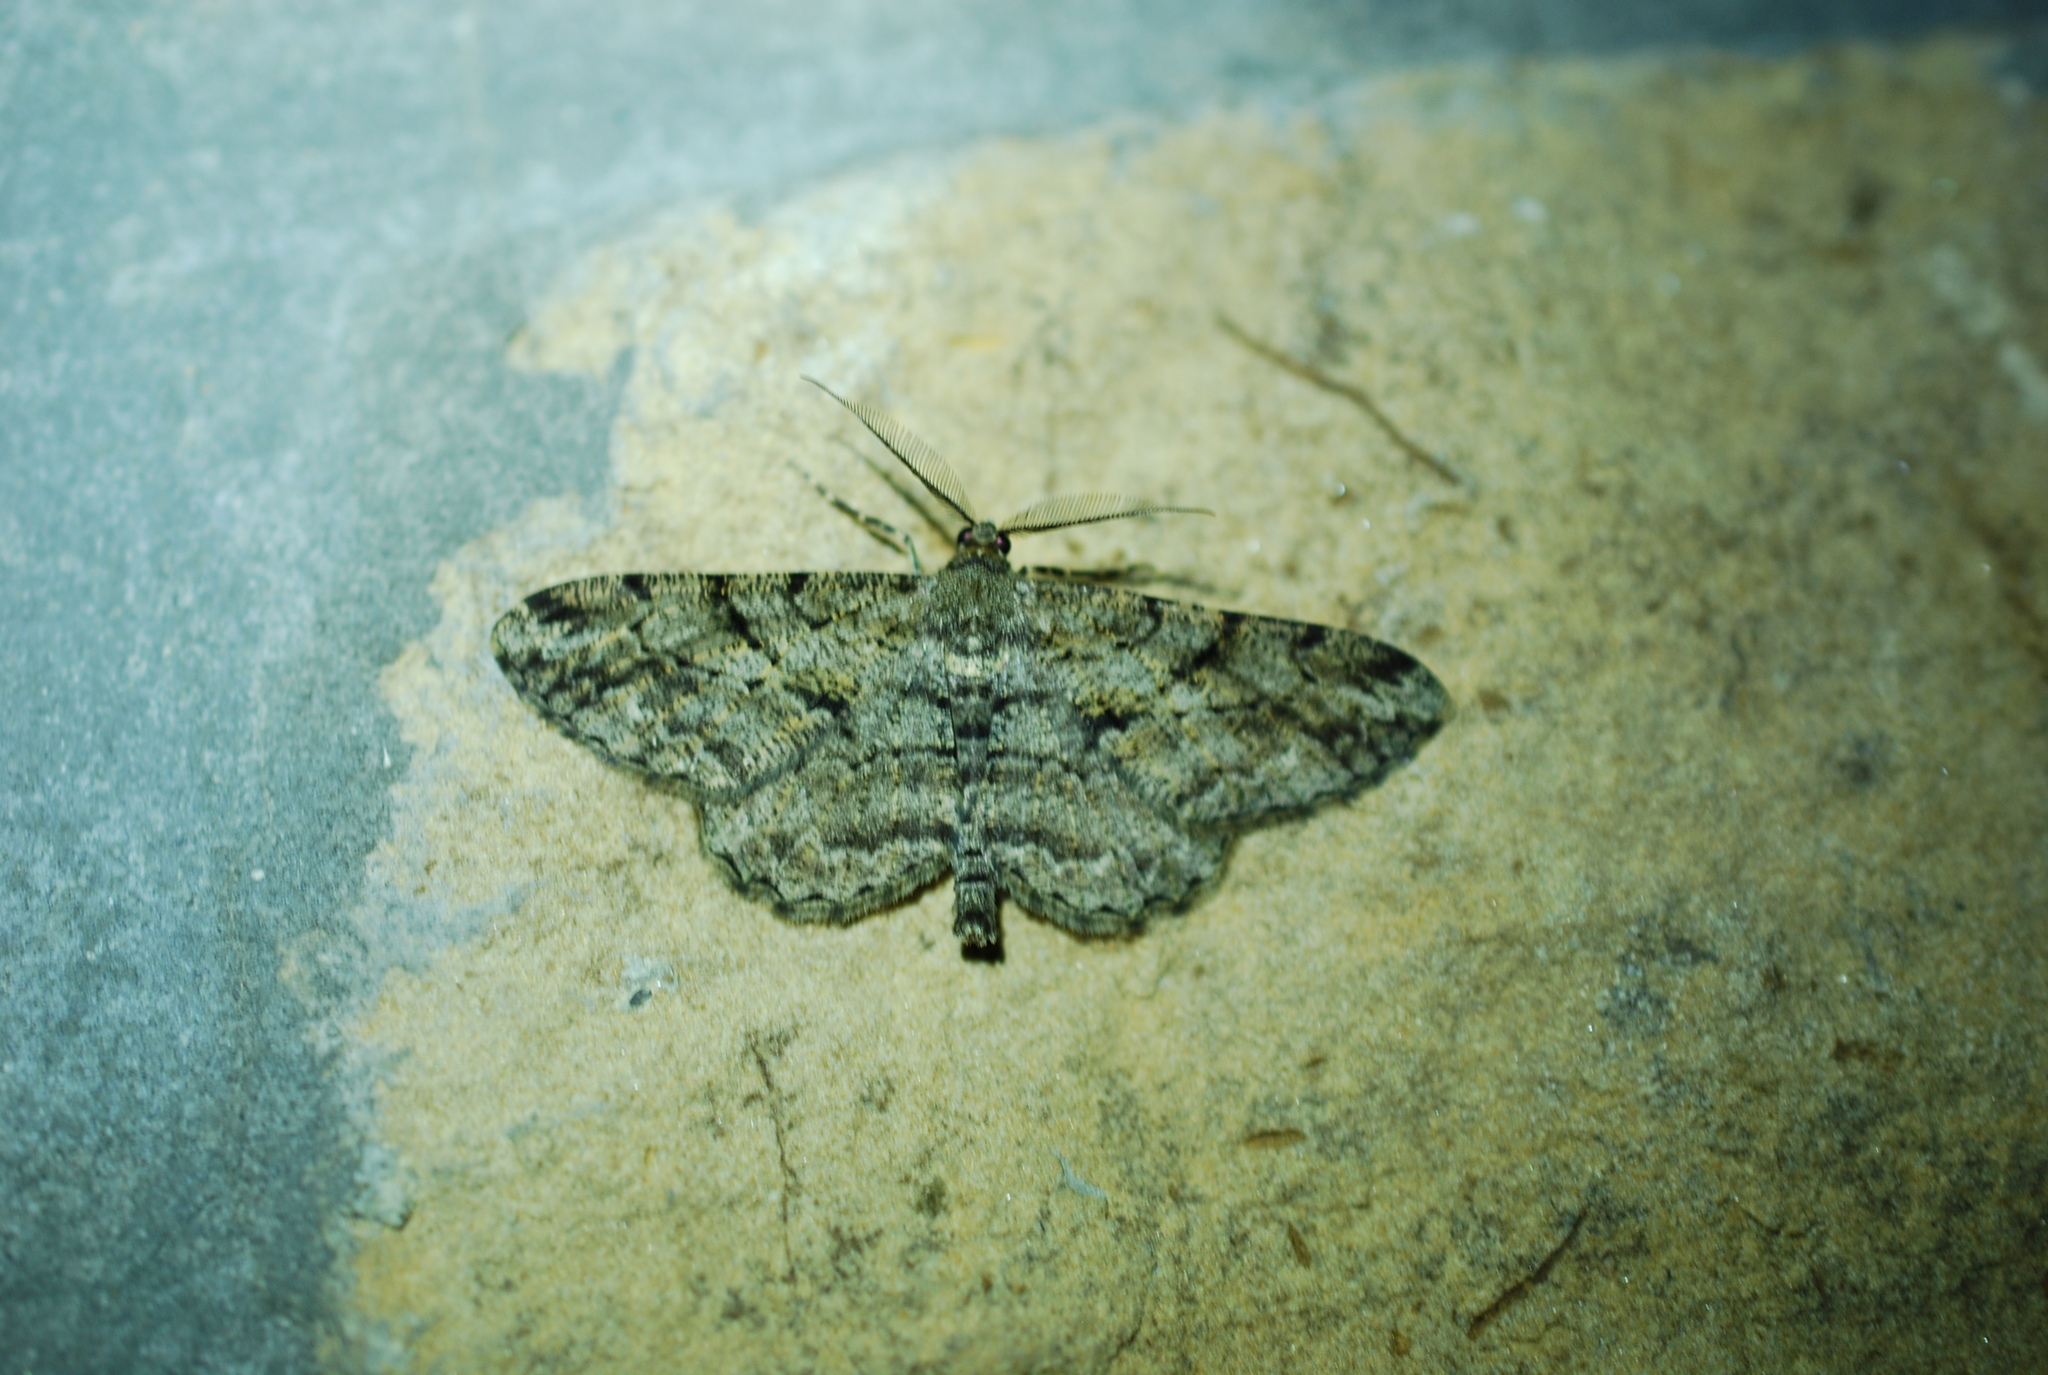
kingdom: Animalia
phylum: Arthropoda
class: Insecta
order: Lepidoptera
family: Geometridae
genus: Peribatodes
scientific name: Peribatodes rhomboidaria
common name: Willow beauty
